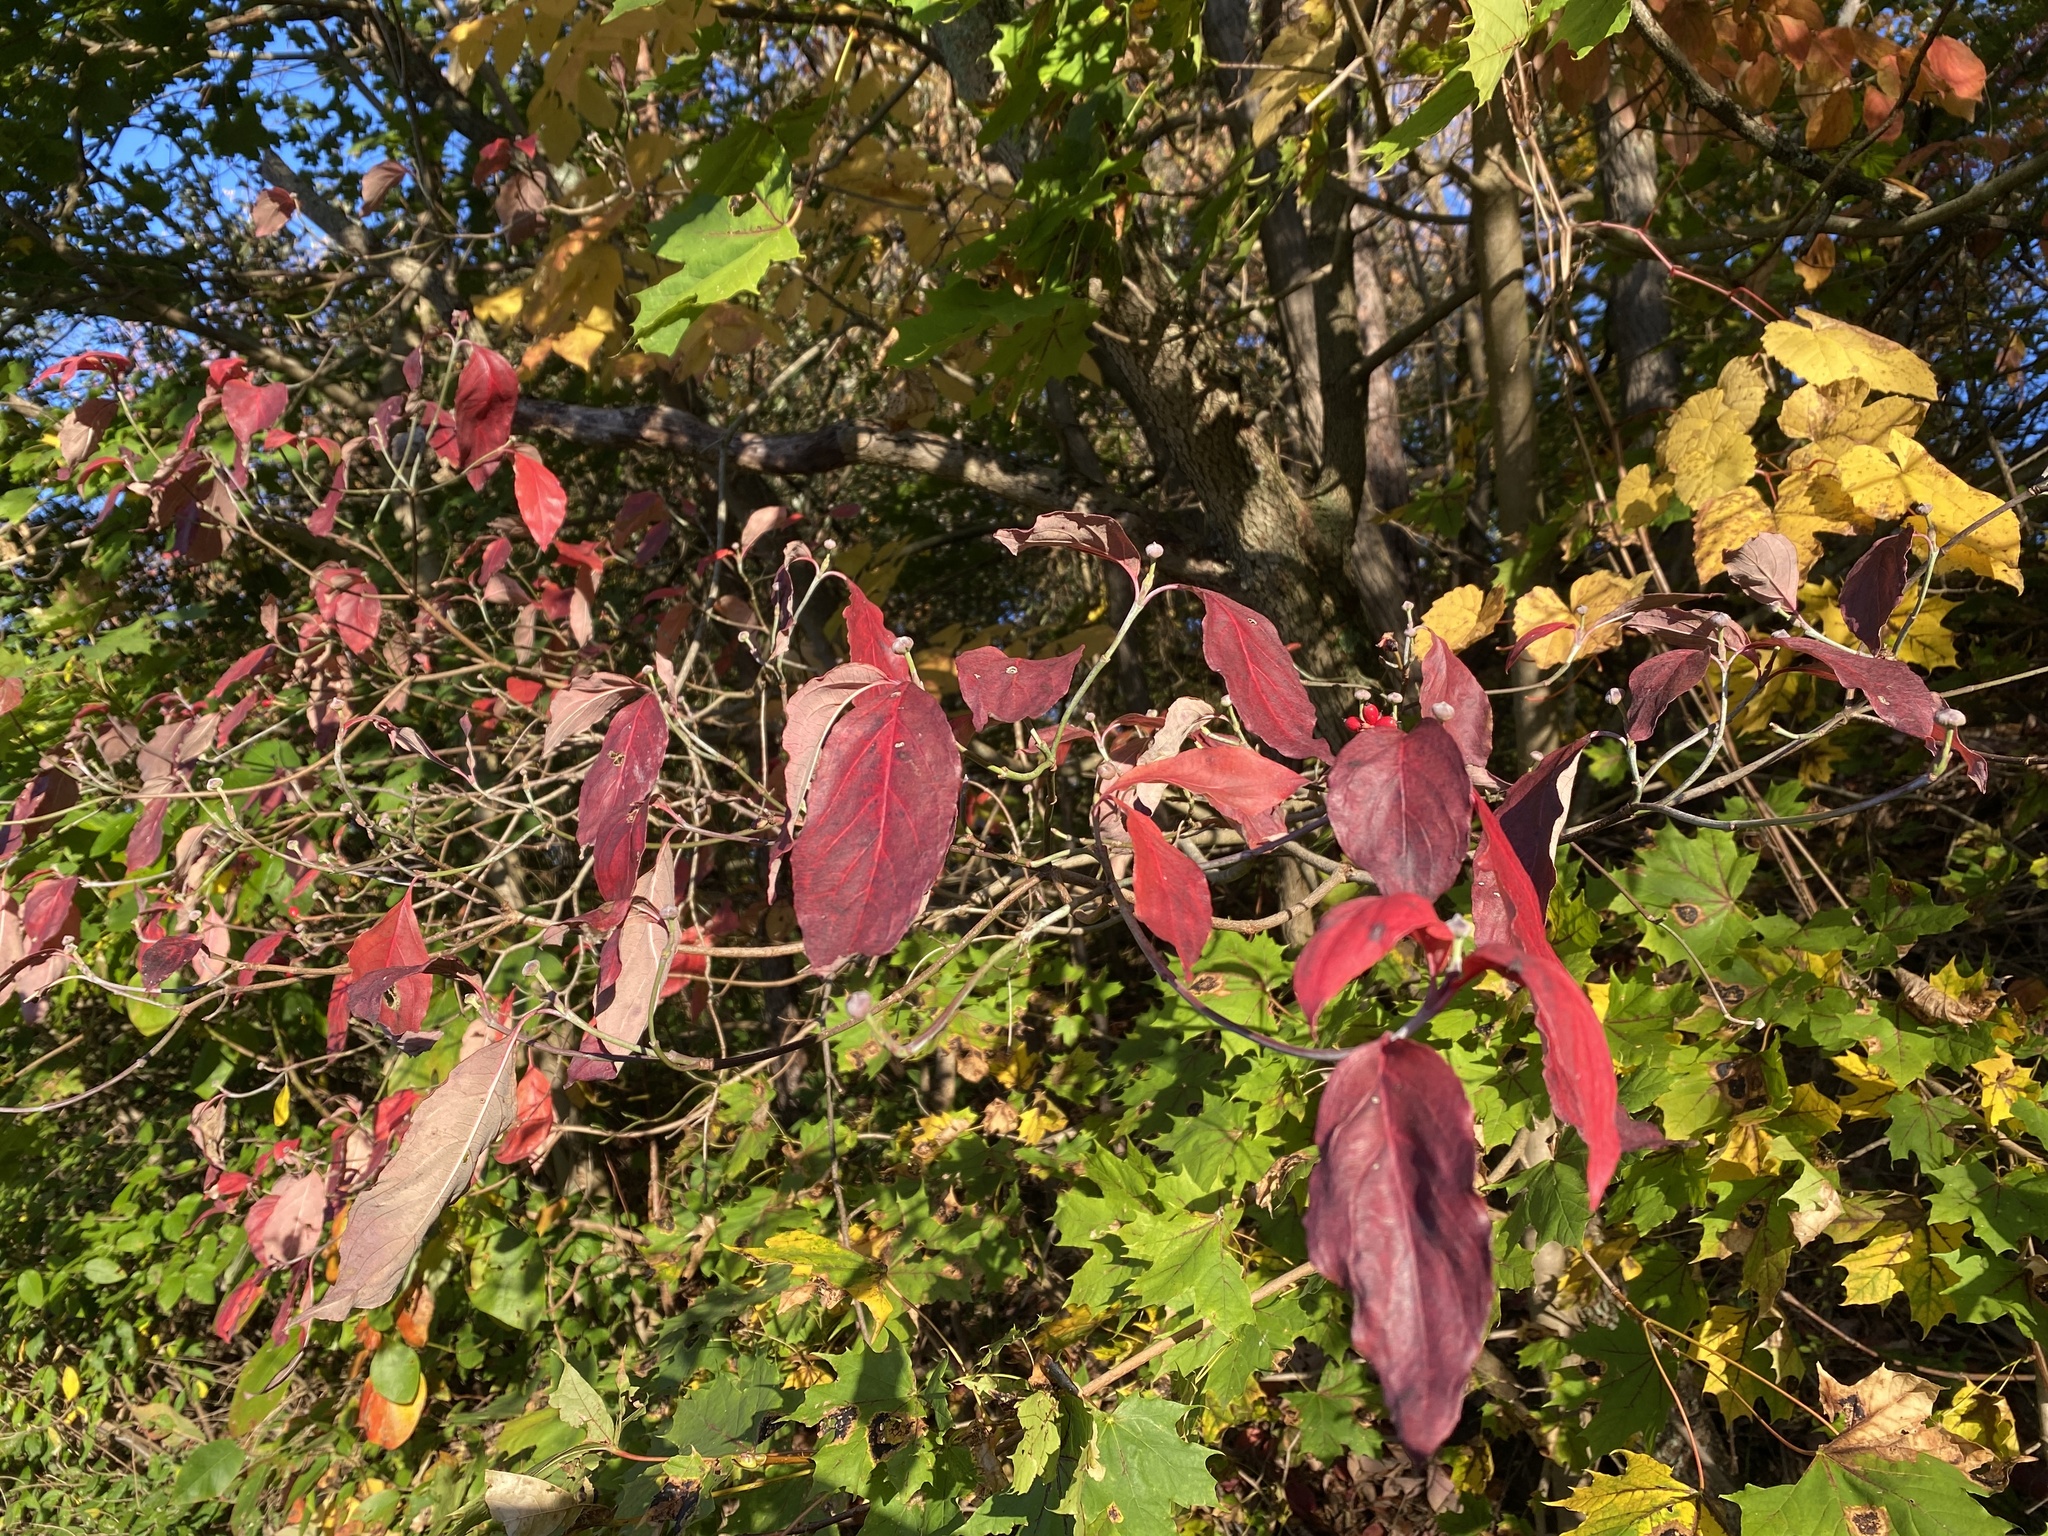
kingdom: Plantae
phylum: Tracheophyta
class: Magnoliopsida
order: Cornales
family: Cornaceae
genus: Cornus
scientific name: Cornus florida
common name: Flowering dogwood
